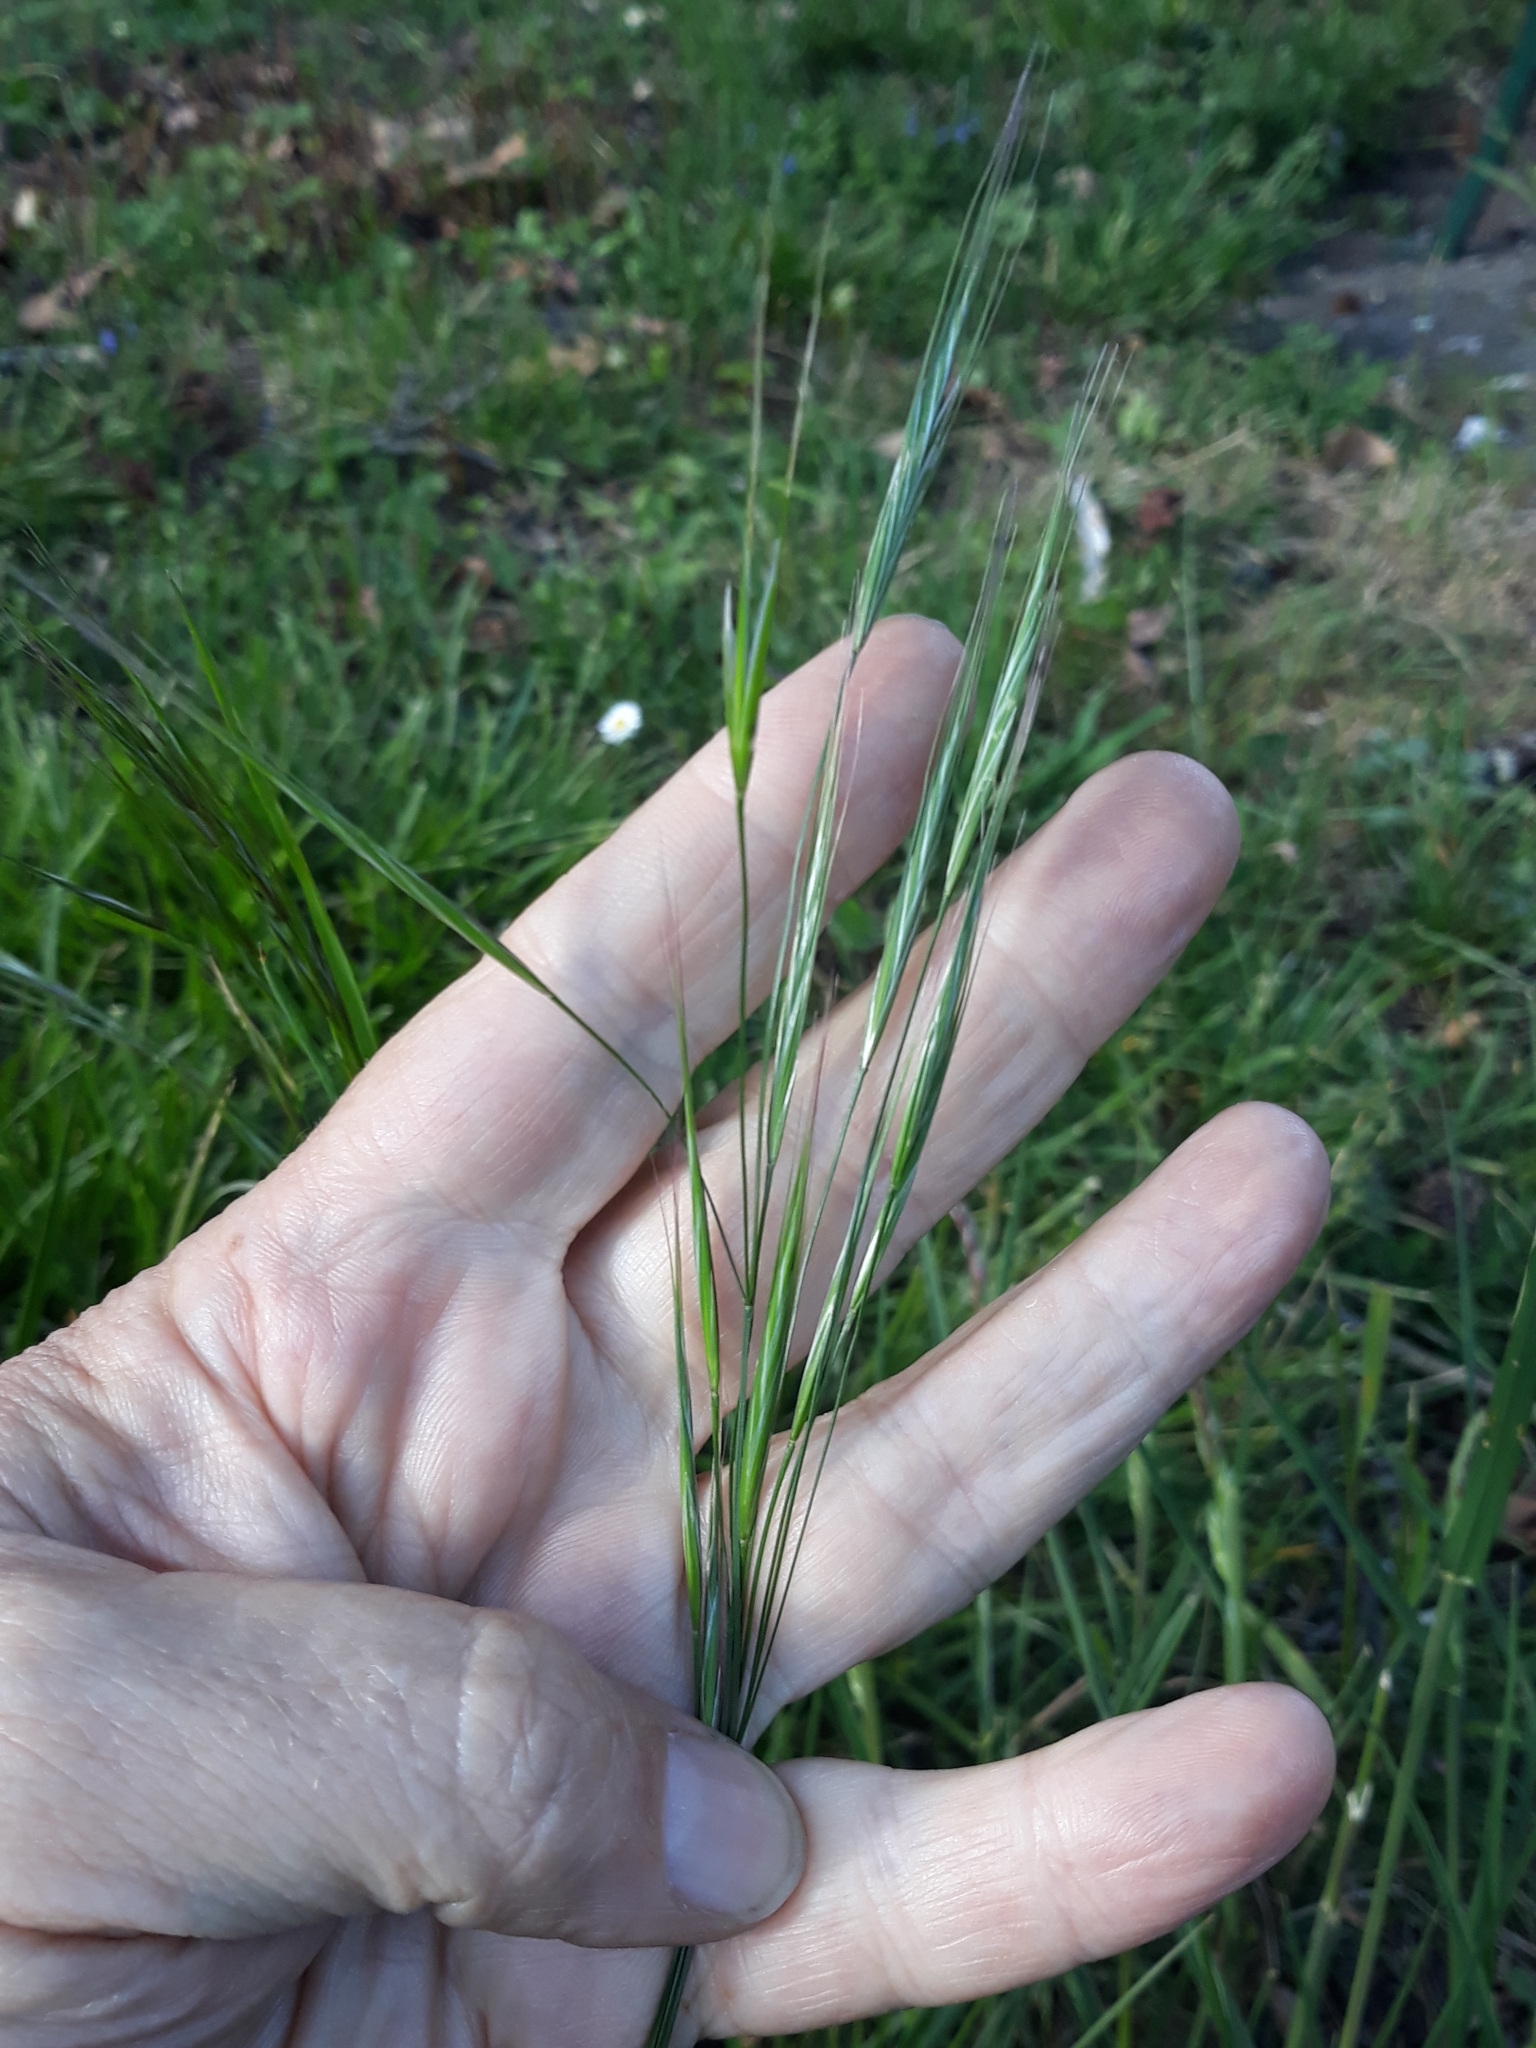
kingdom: Plantae
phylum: Tracheophyta
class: Liliopsida
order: Poales
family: Poaceae
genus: Bromus
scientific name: Bromus sterilis
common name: Poverty brome
